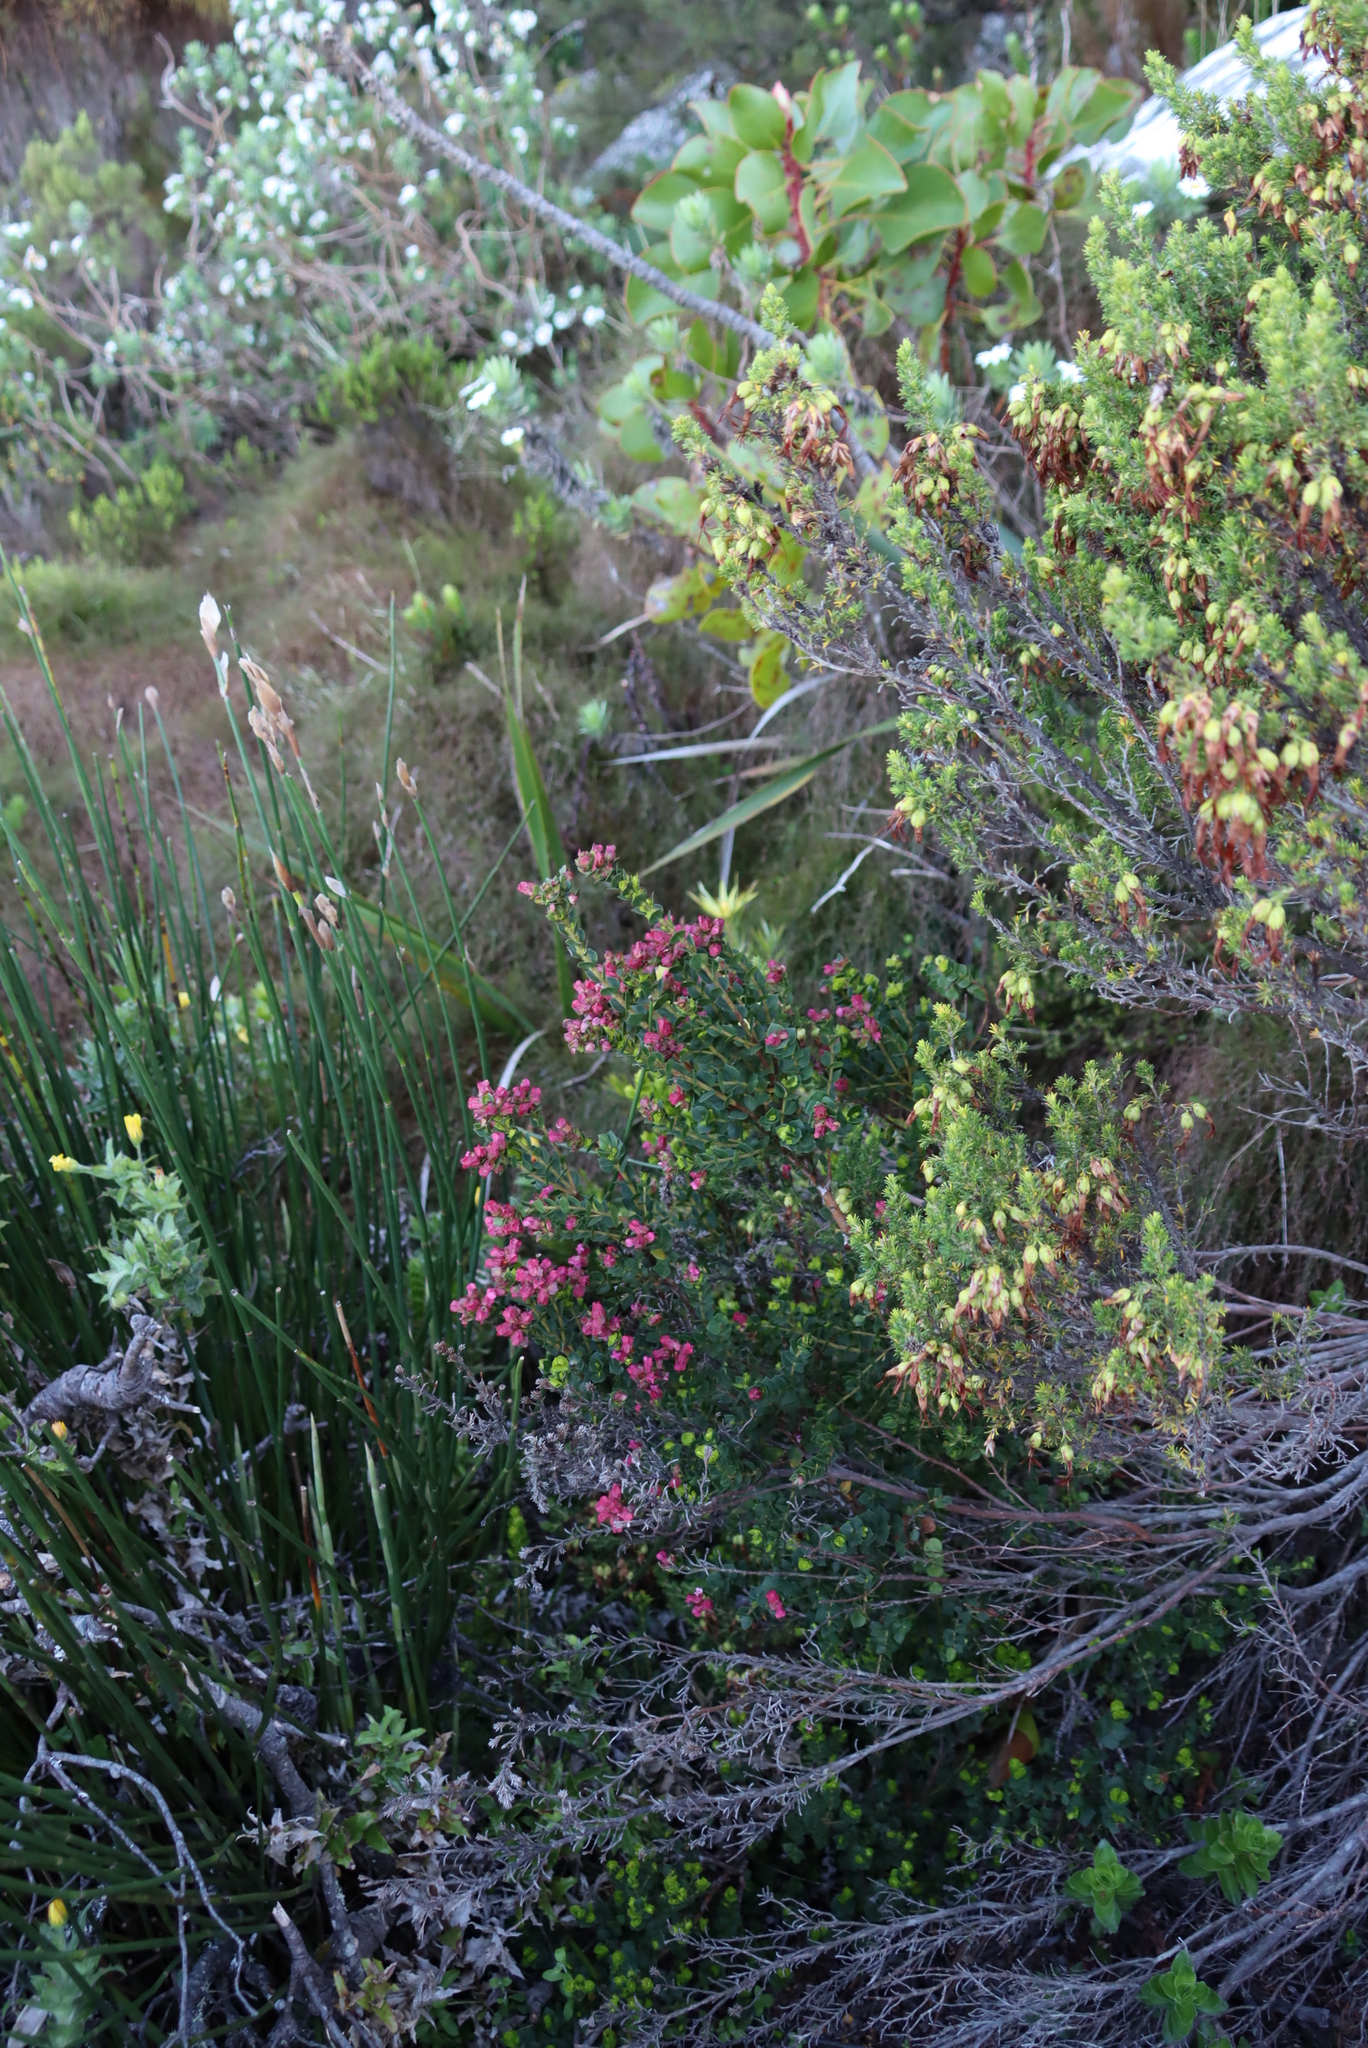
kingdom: Plantae
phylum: Tracheophyta
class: Magnoliopsida
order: Myrtales
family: Penaeaceae
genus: Brachysiphon
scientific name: Brachysiphon fucatus
